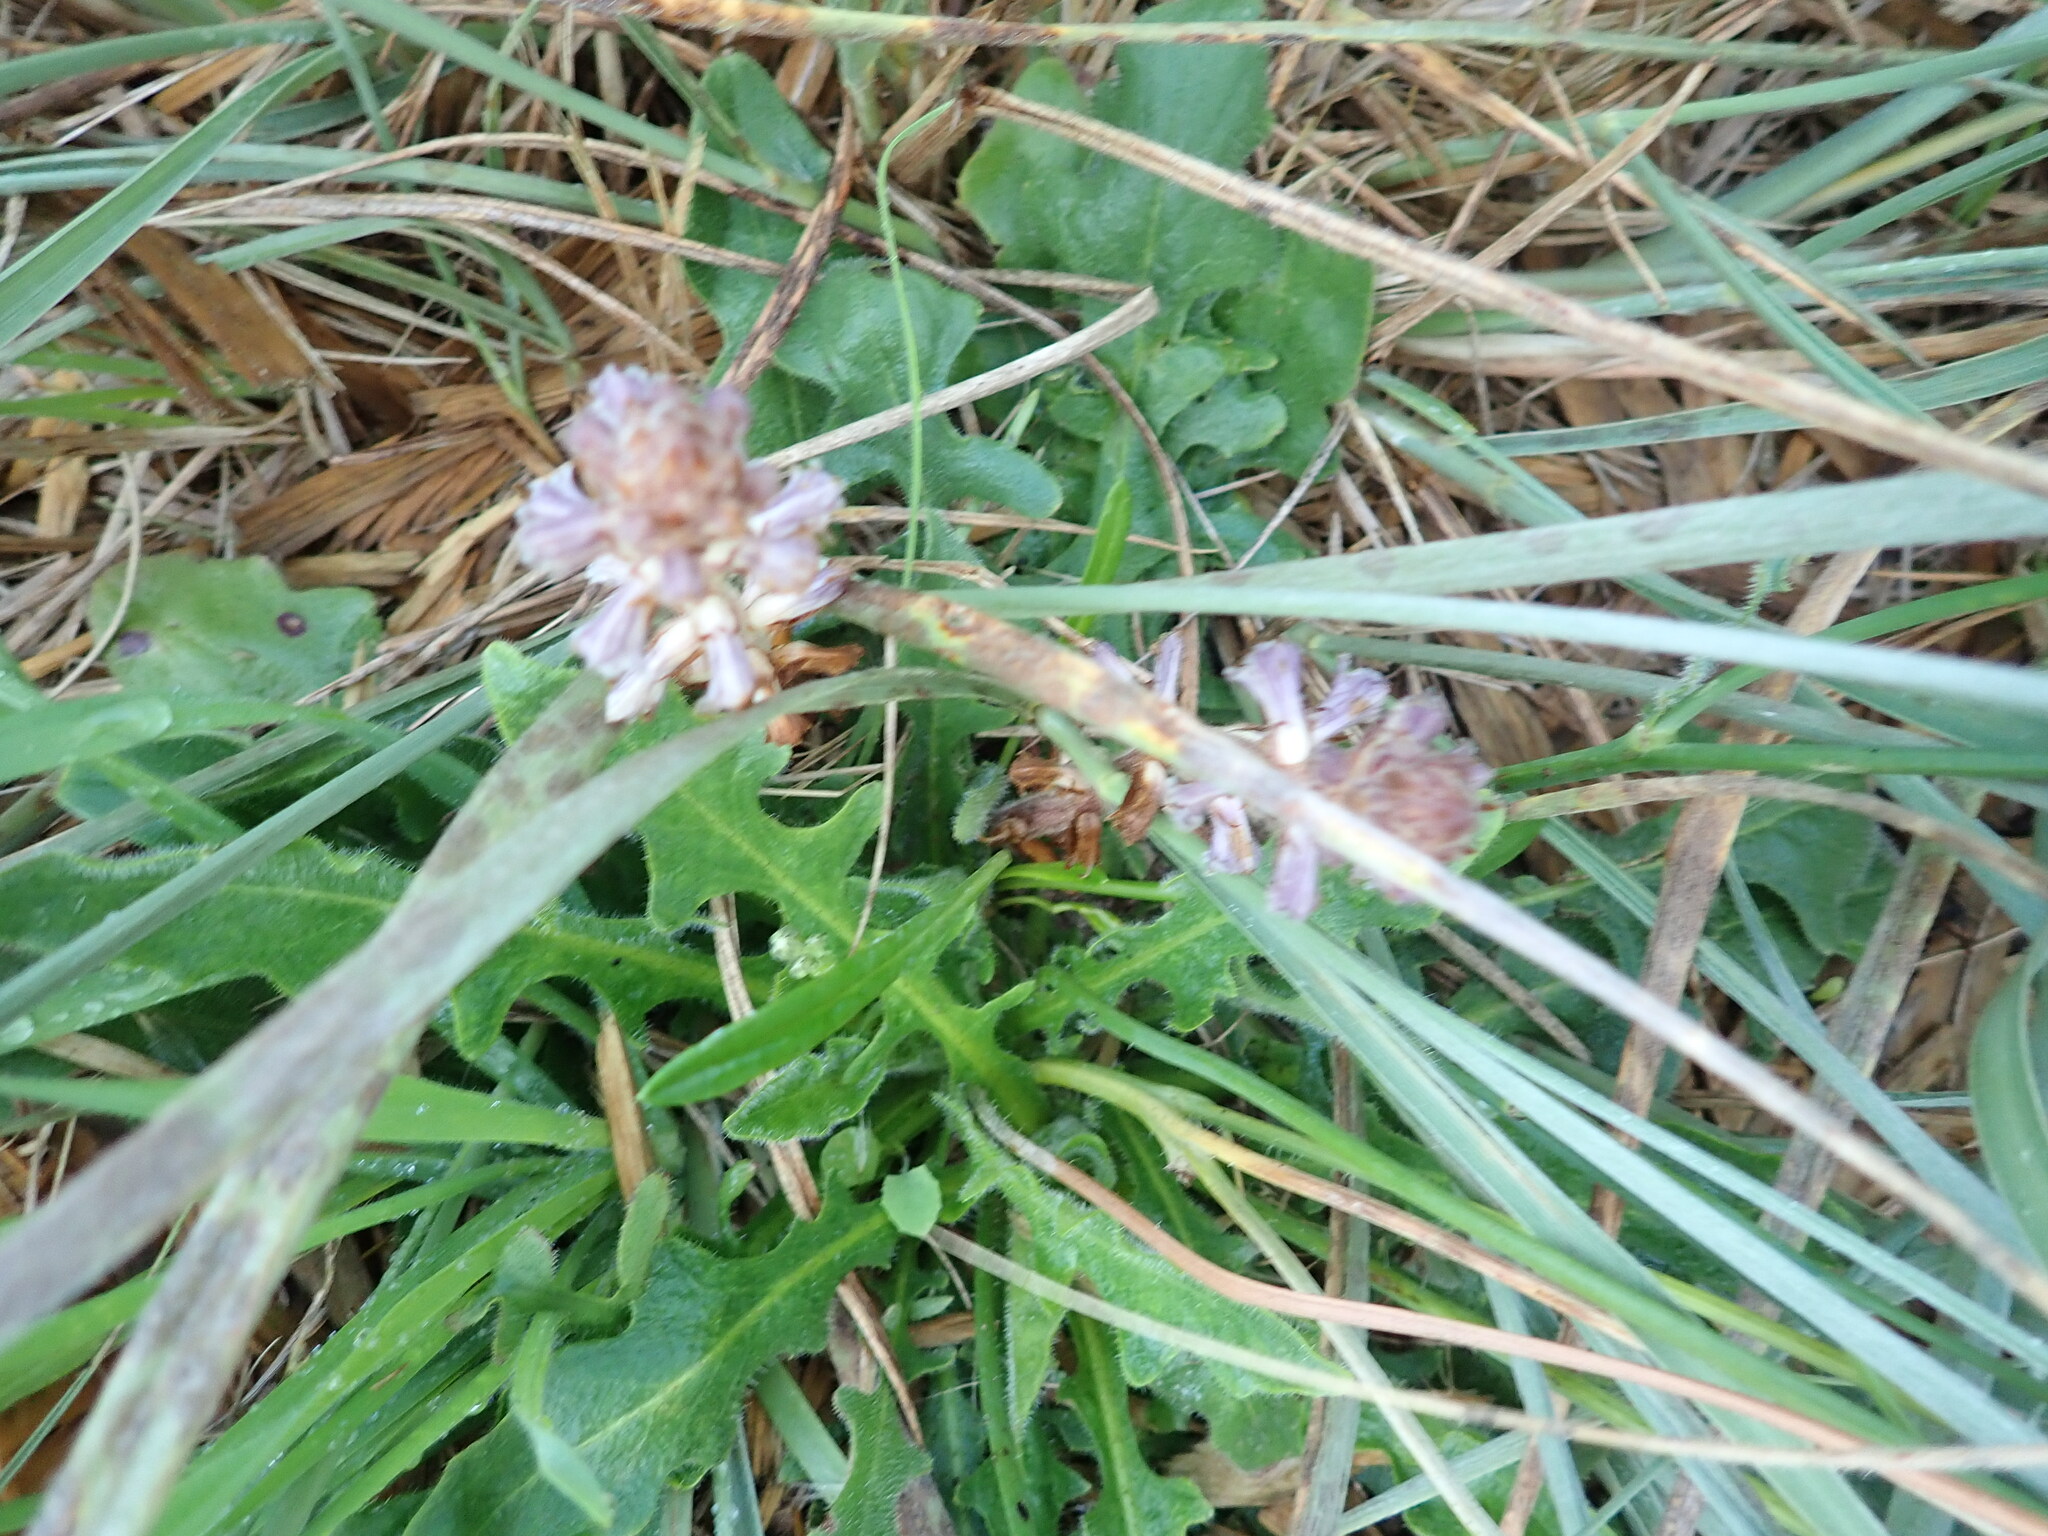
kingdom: Plantae
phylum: Tracheophyta
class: Magnoliopsida
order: Lamiales
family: Orobanchaceae
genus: Orobanche
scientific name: Orobanche minor
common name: Common broomrape
